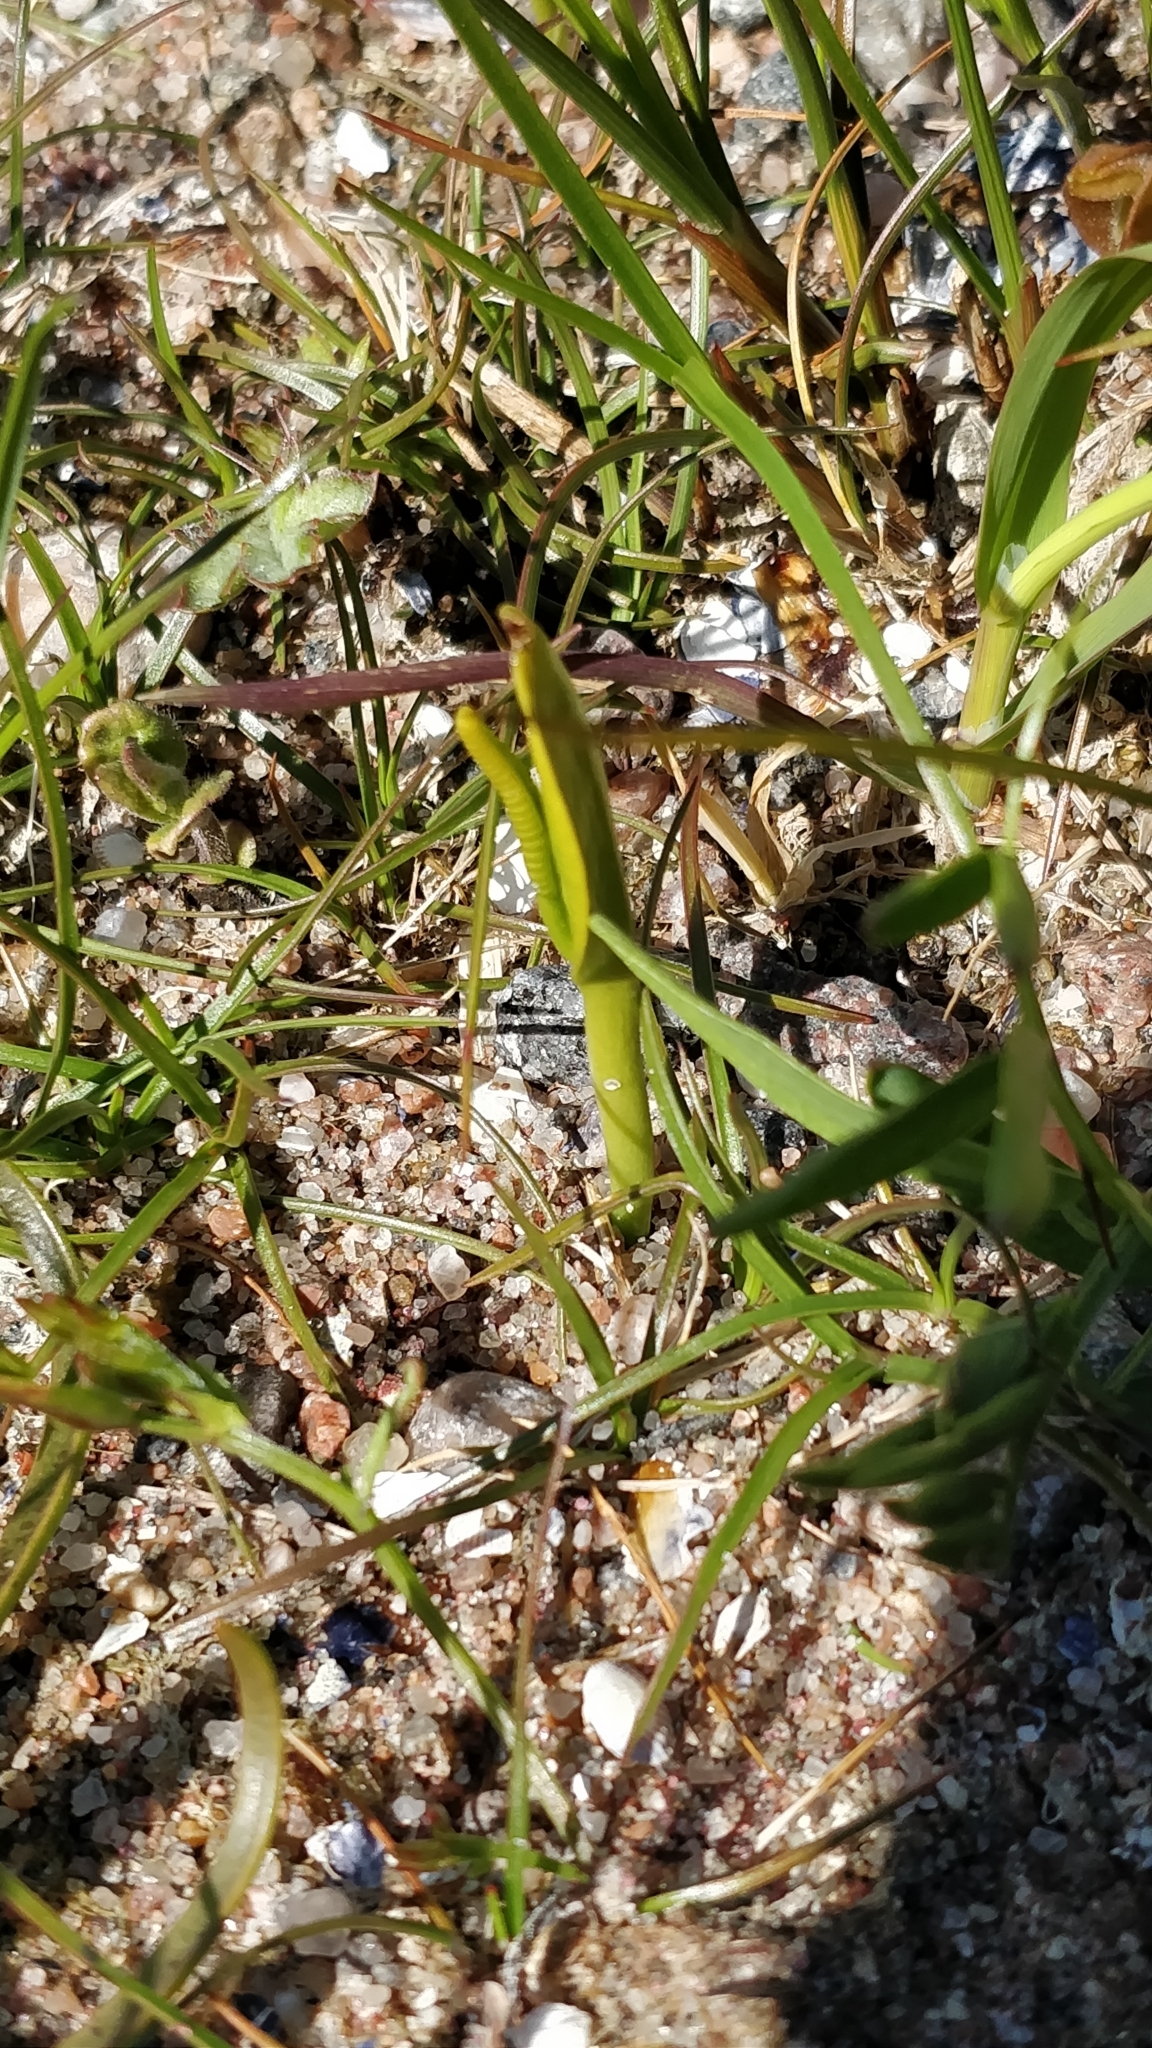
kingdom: Plantae
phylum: Tracheophyta
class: Polypodiopsida
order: Ophioglossales
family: Ophioglossaceae
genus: Ophioglossum
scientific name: Ophioglossum vulgatum
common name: Adder's-tongue
